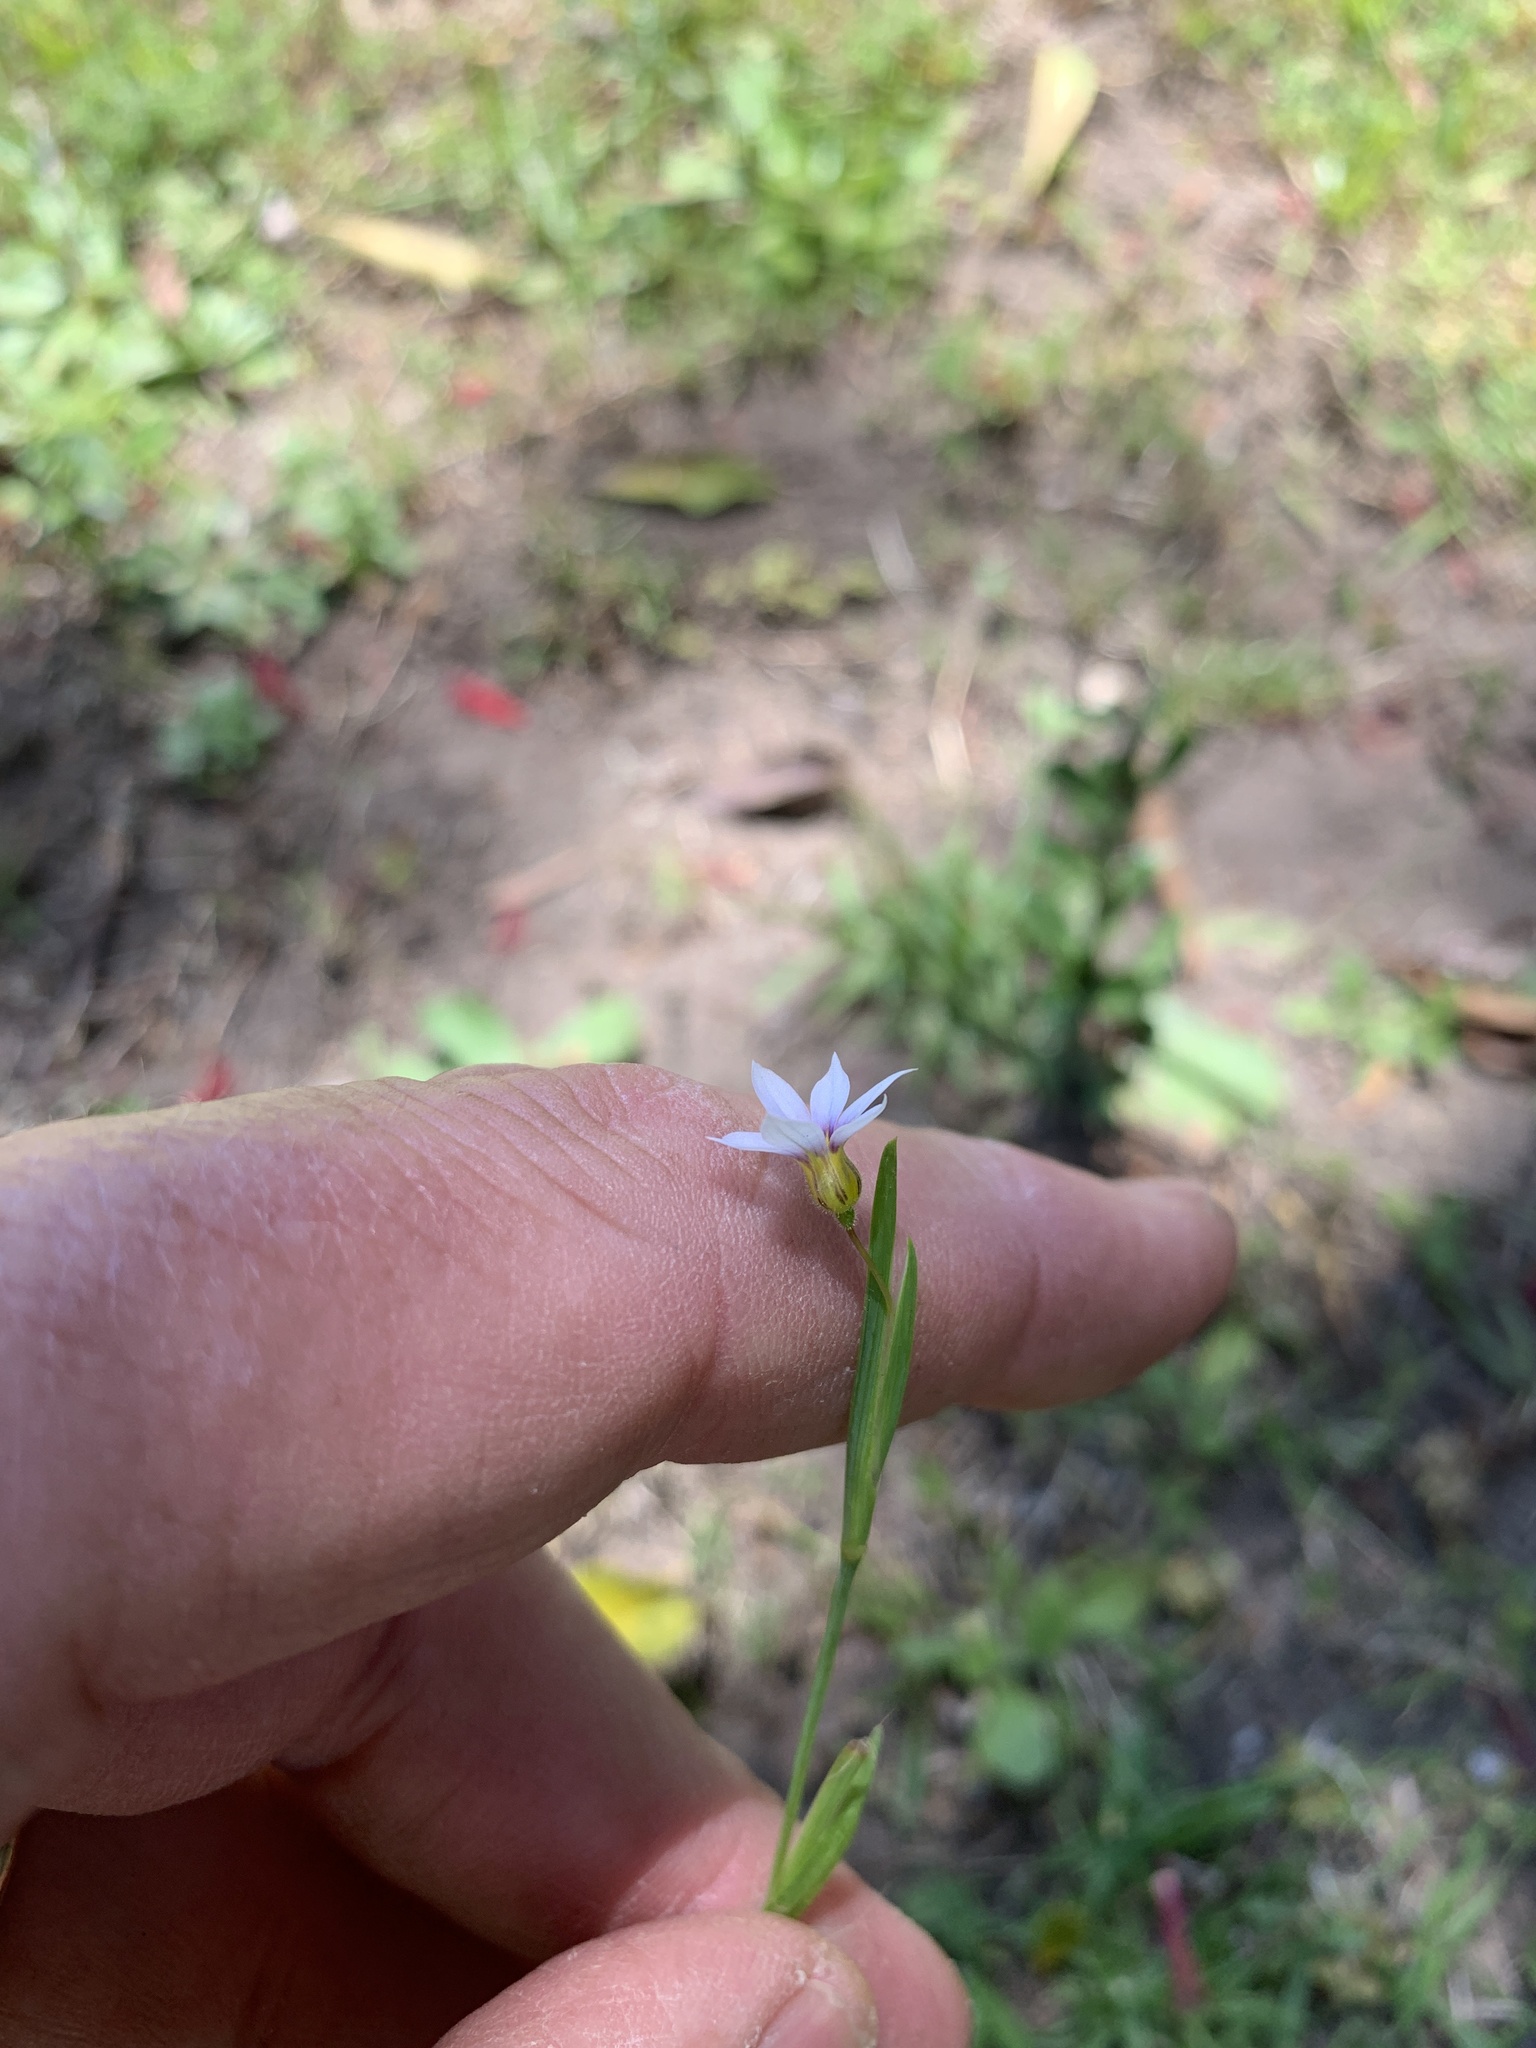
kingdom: Plantae
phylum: Tracheophyta
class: Liliopsida
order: Asparagales
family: Iridaceae
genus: Sisyrinchium
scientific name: Sisyrinchium micranthum
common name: Bermuda pigroot
